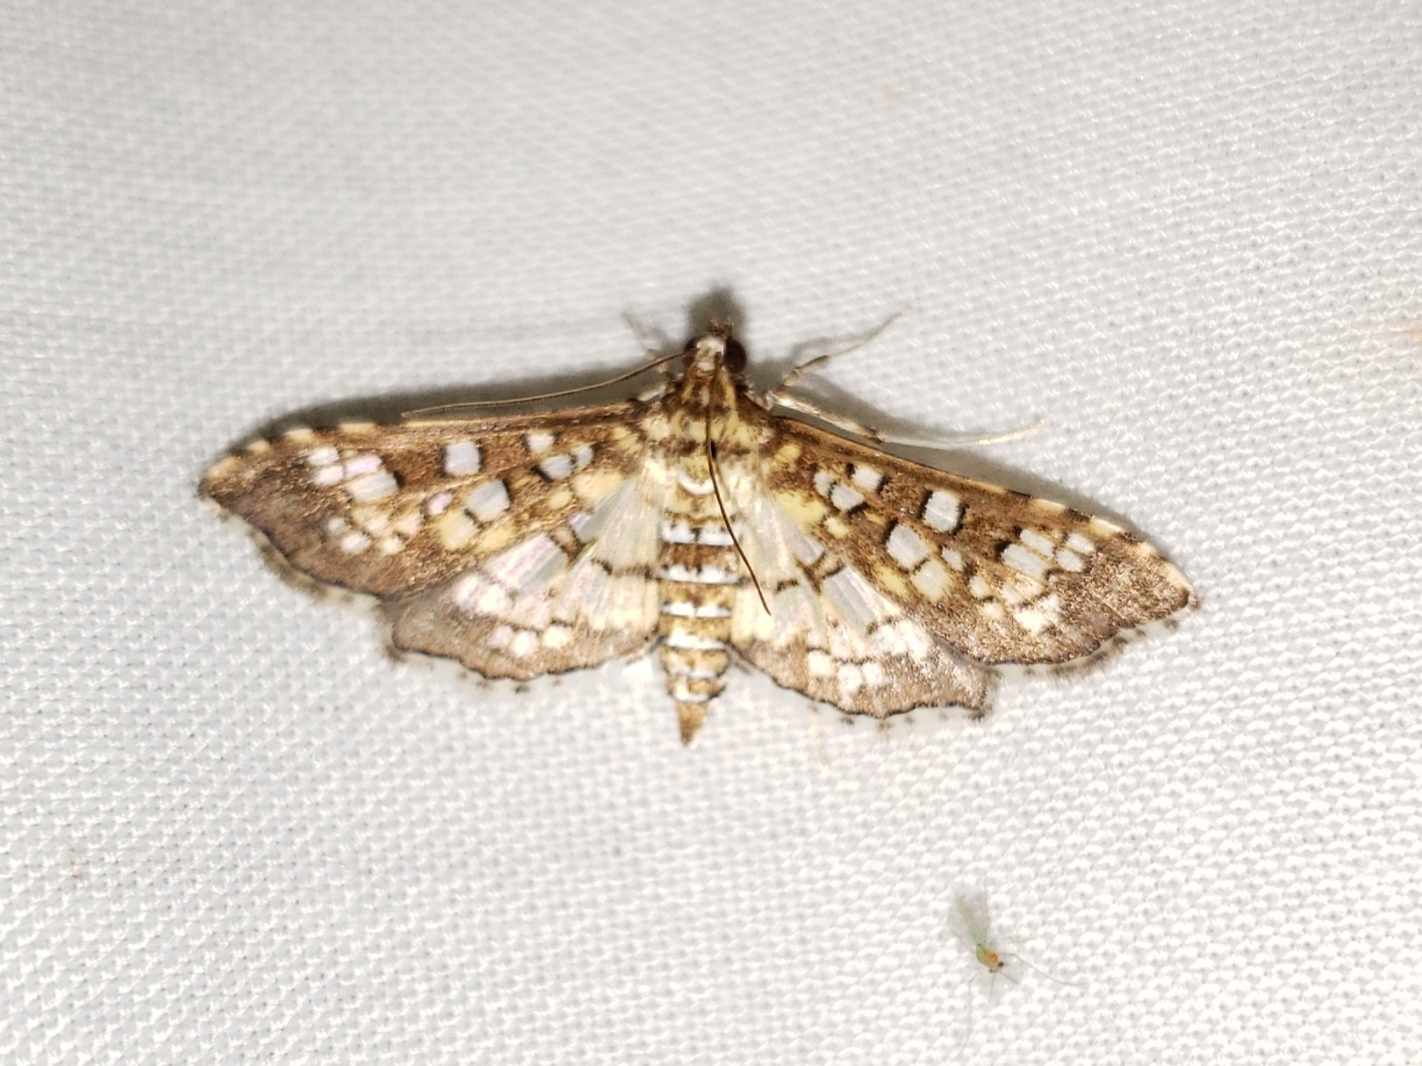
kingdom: Animalia
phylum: Arthropoda
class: Insecta
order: Lepidoptera
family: Crambidae
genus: Samea
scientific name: Samea ecclesialis
